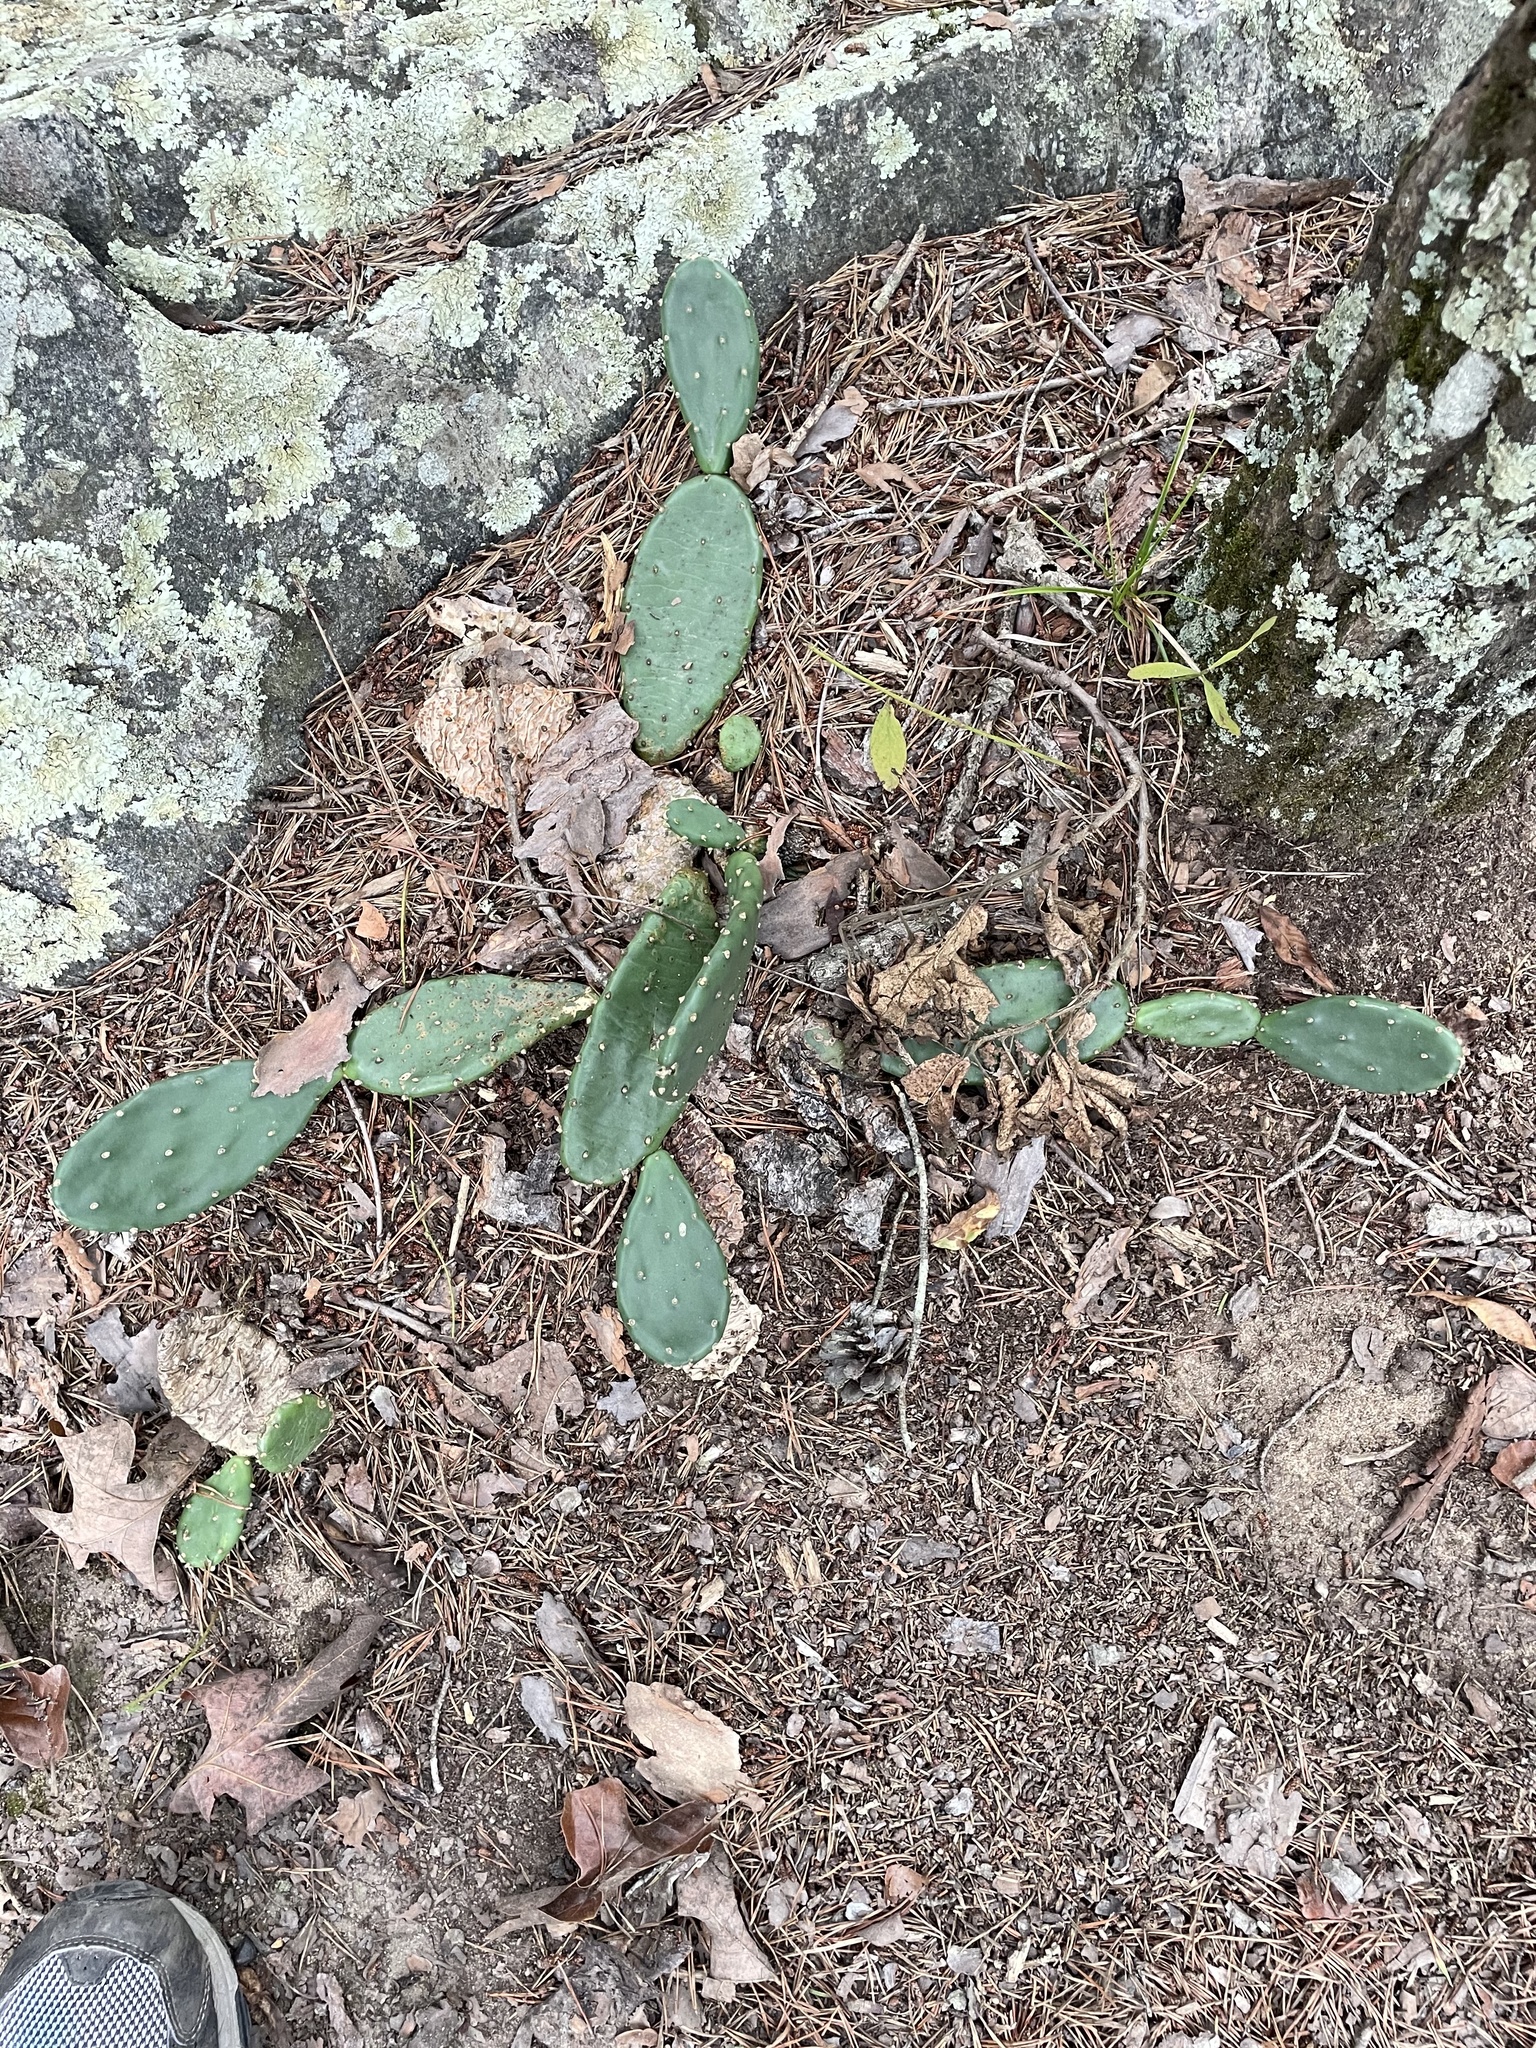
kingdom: Plantae
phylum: Tracheophyta
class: Magnoliopsida
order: Caryophyllales
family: Cactaceae
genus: Opuntia
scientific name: Opuntia humifusa
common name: Eastern prickly-pear
